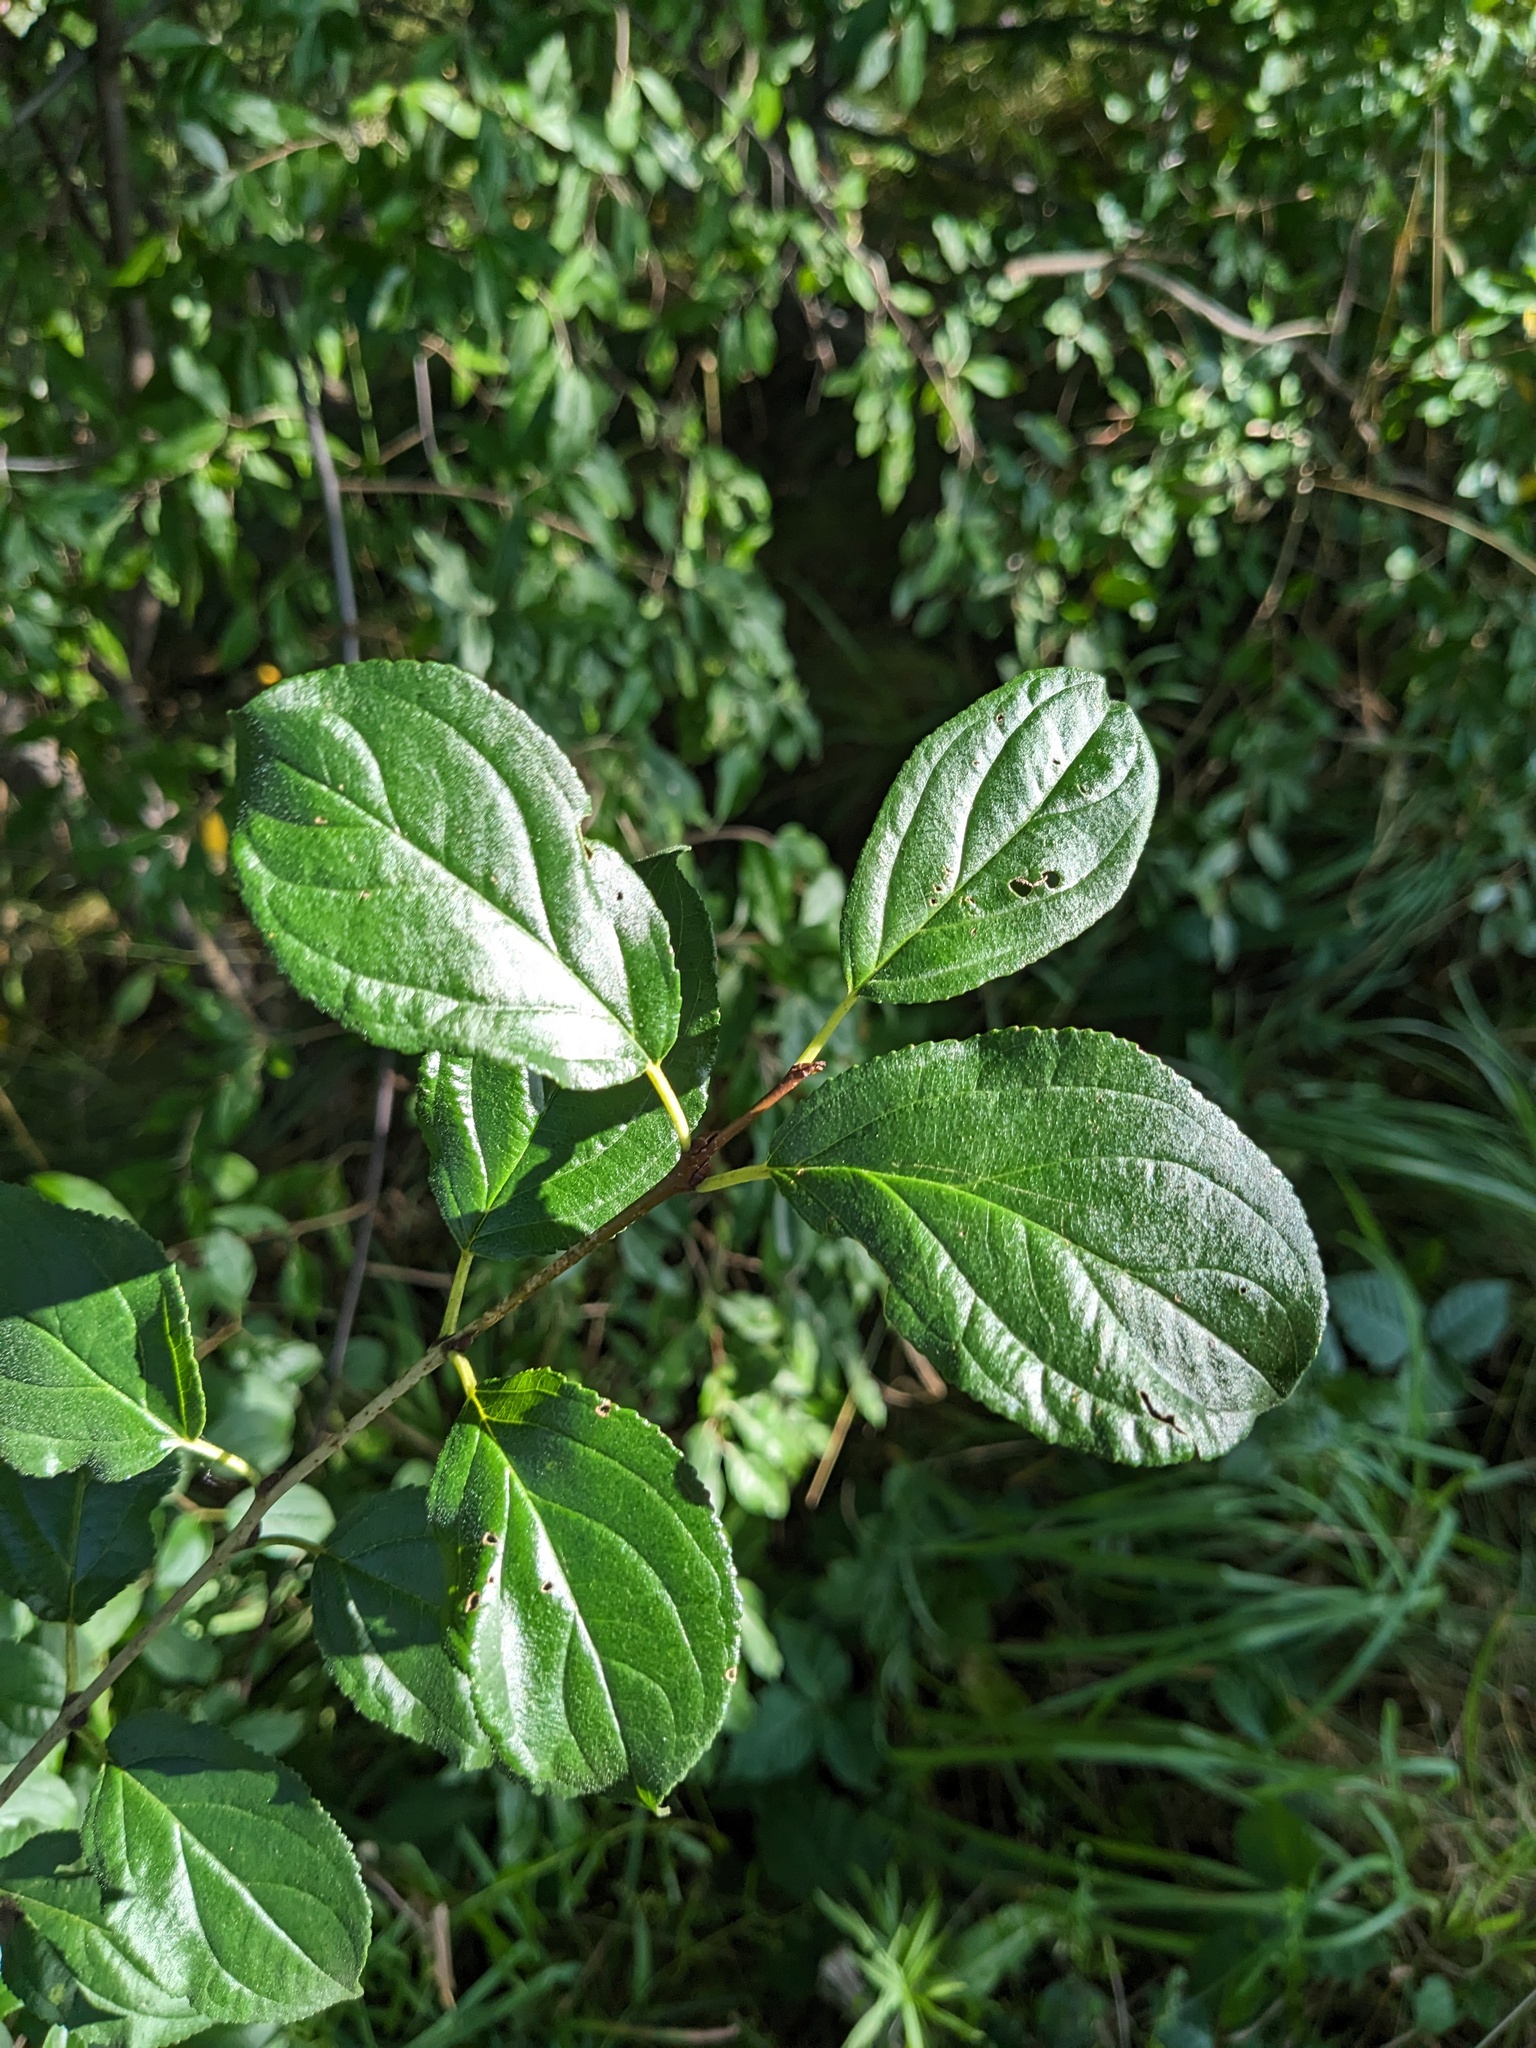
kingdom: Plantae
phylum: Tracheophyta
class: Magnoliopsida
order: Rosales
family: Rhamnaceae
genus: Rhamnus
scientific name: Rhamnus cathartica
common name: Common buckthorn
